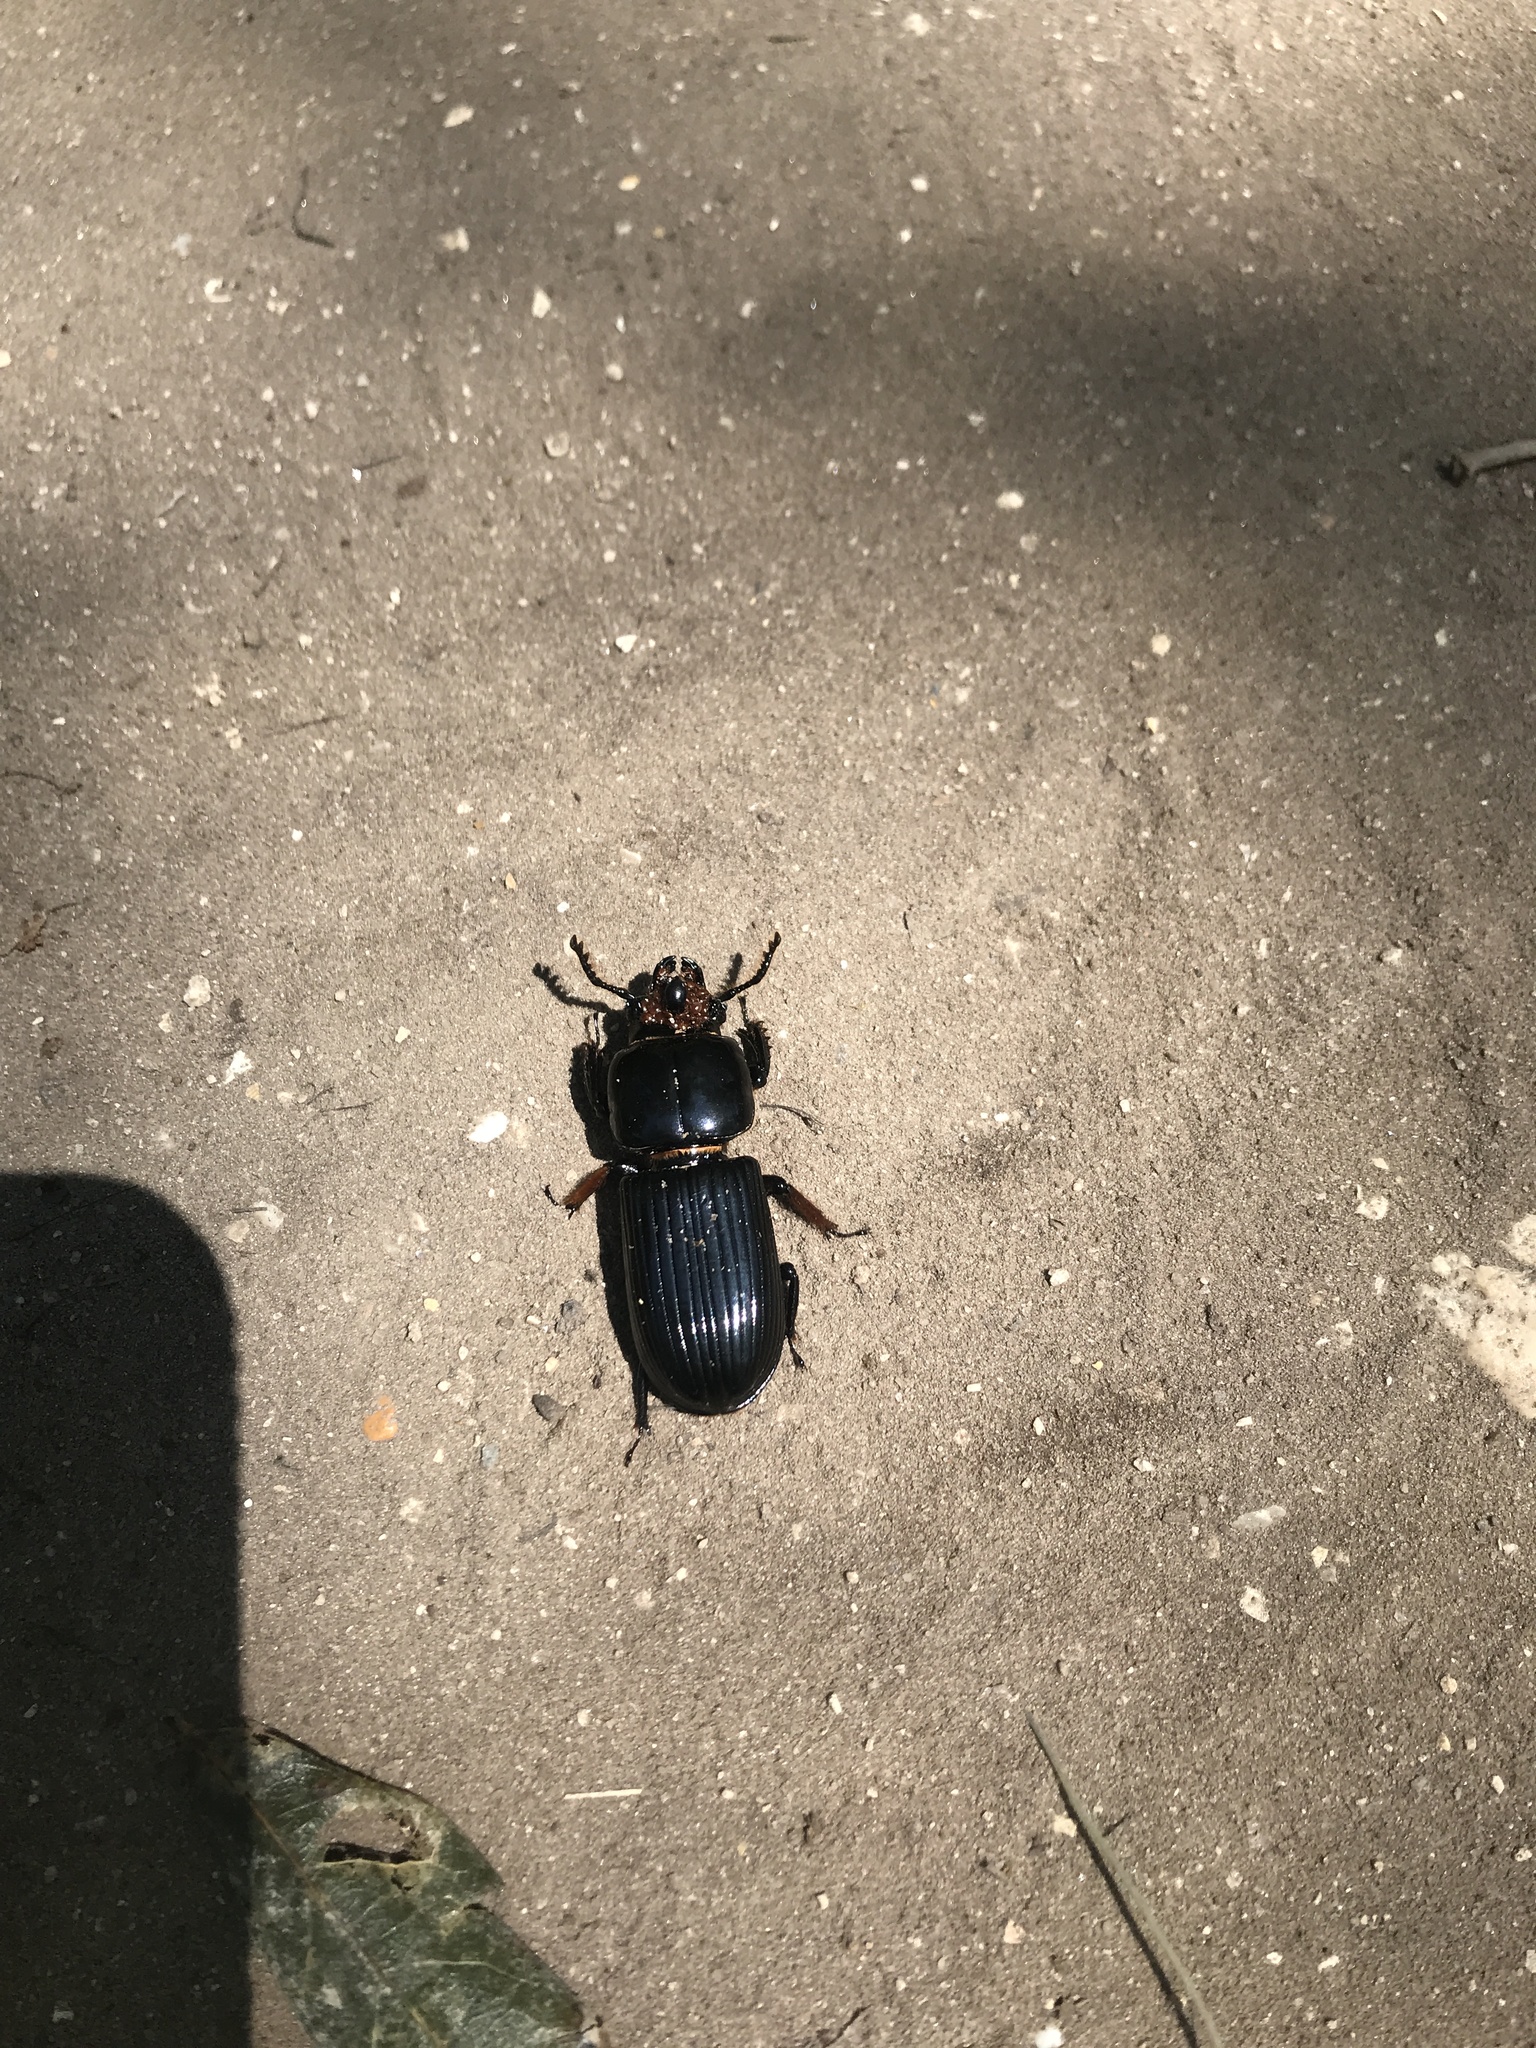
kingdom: Animalia
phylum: Arthropoda
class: Insecta
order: Coleoptera
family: Passalidae
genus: Odontotaenius
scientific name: Odontotaenius disjunctus
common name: Patent leather beetle
